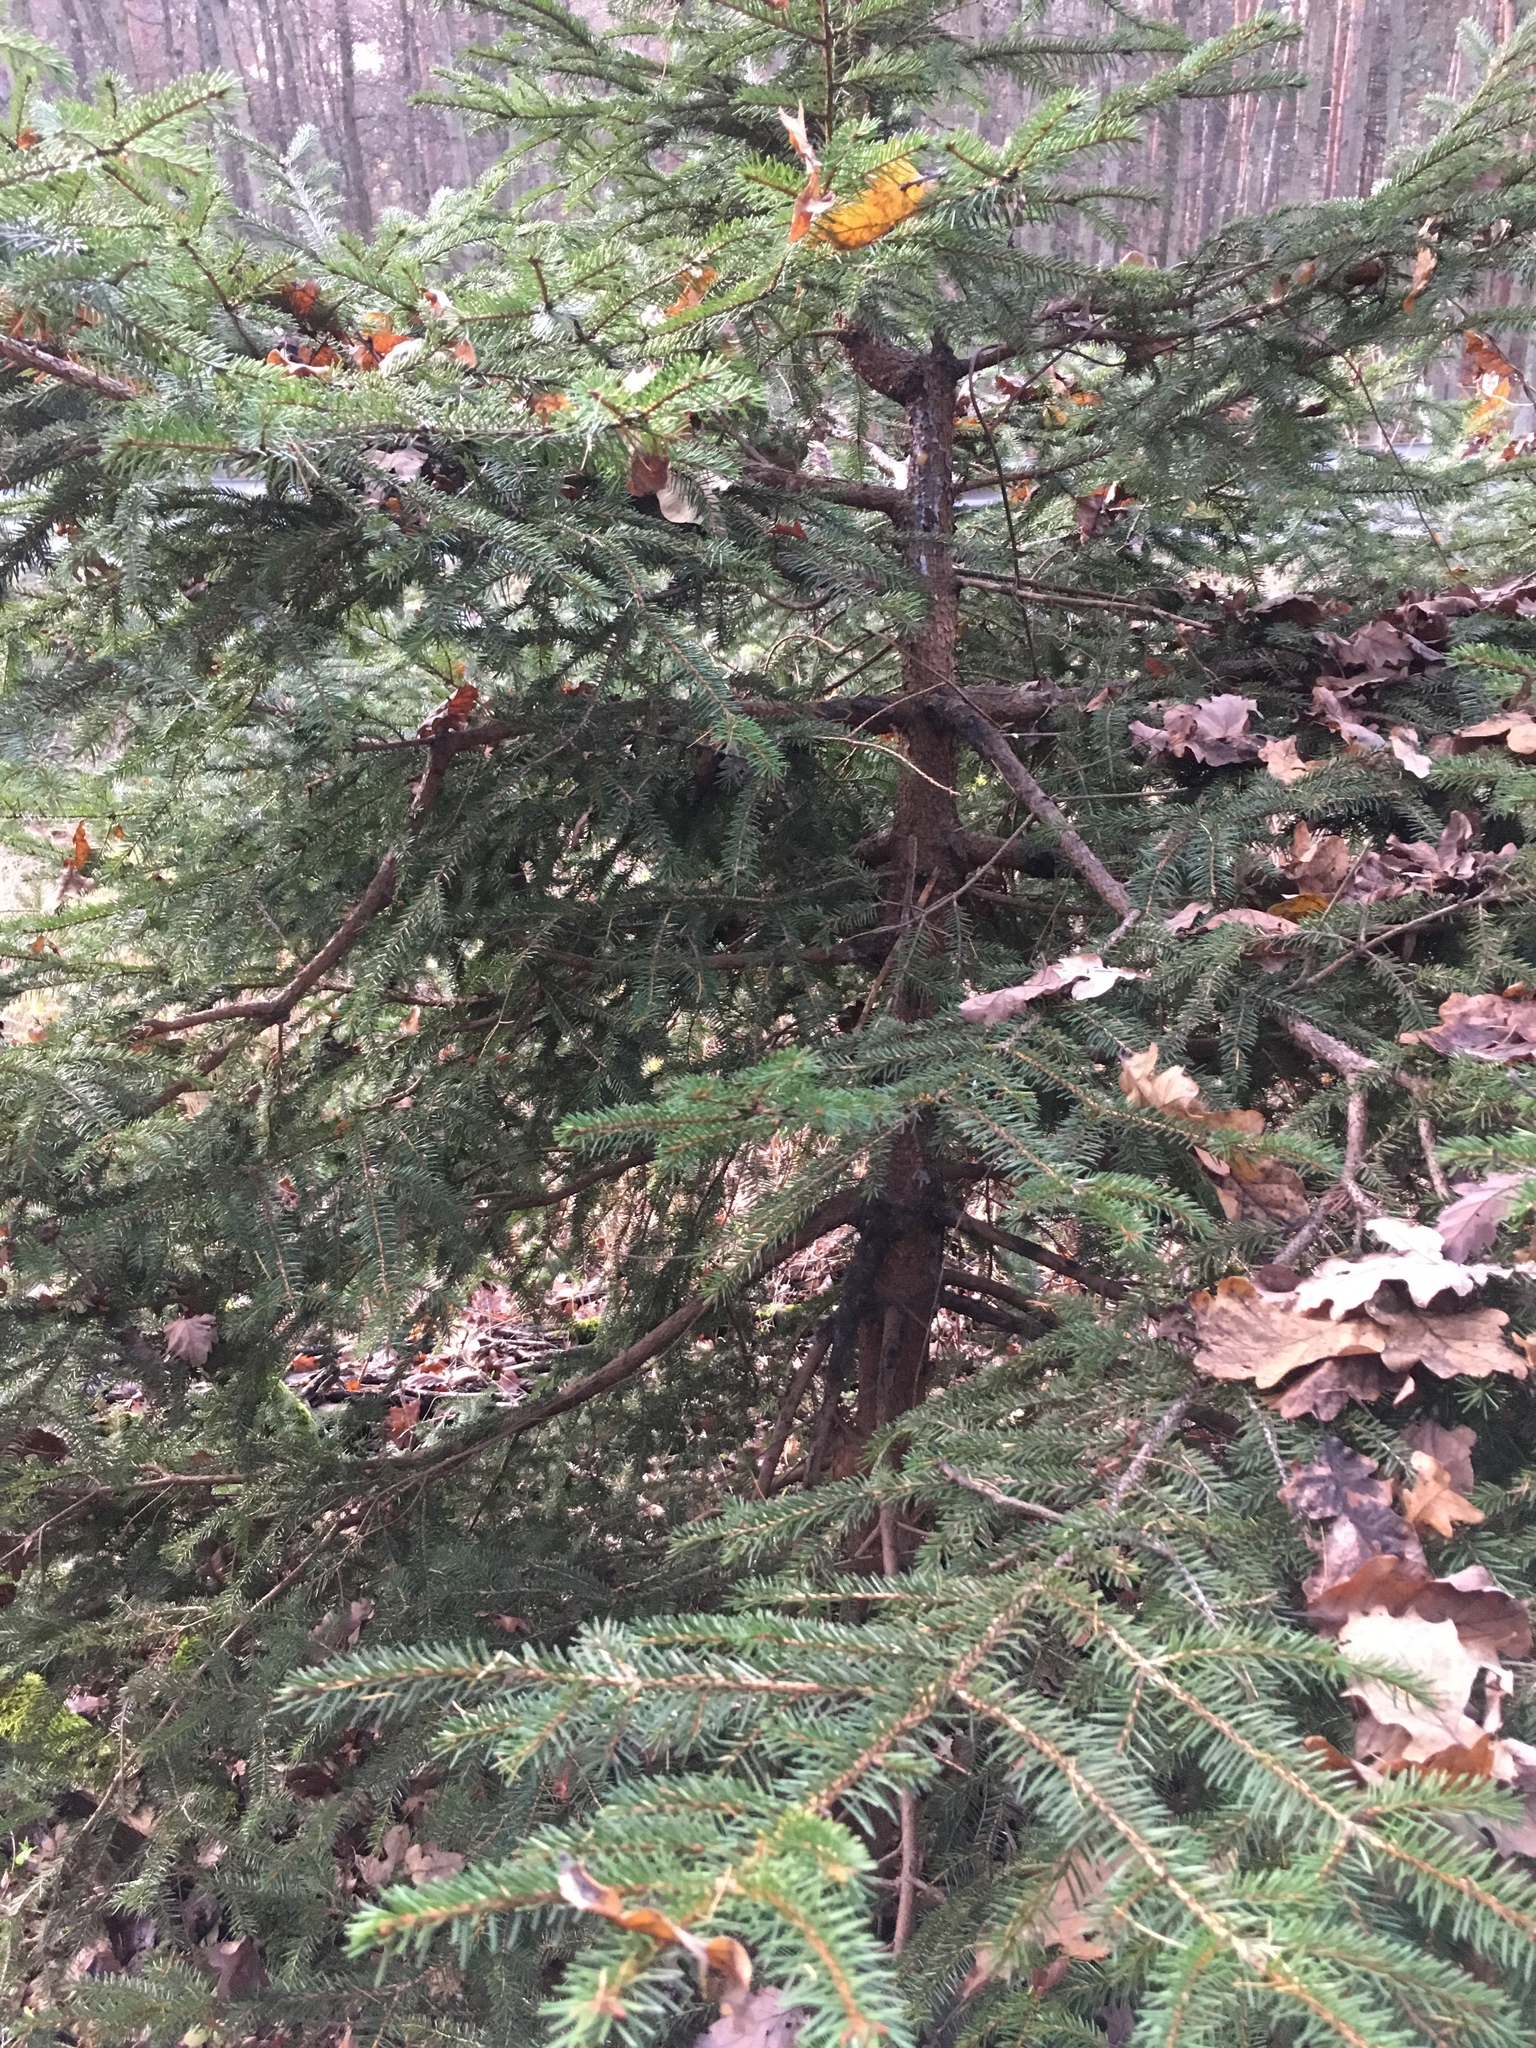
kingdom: Plantae
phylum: Tracheophyta
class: Pinopsida
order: Pinales
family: Pinaceae
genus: Picea
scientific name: Picea abies
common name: Norway spruce
